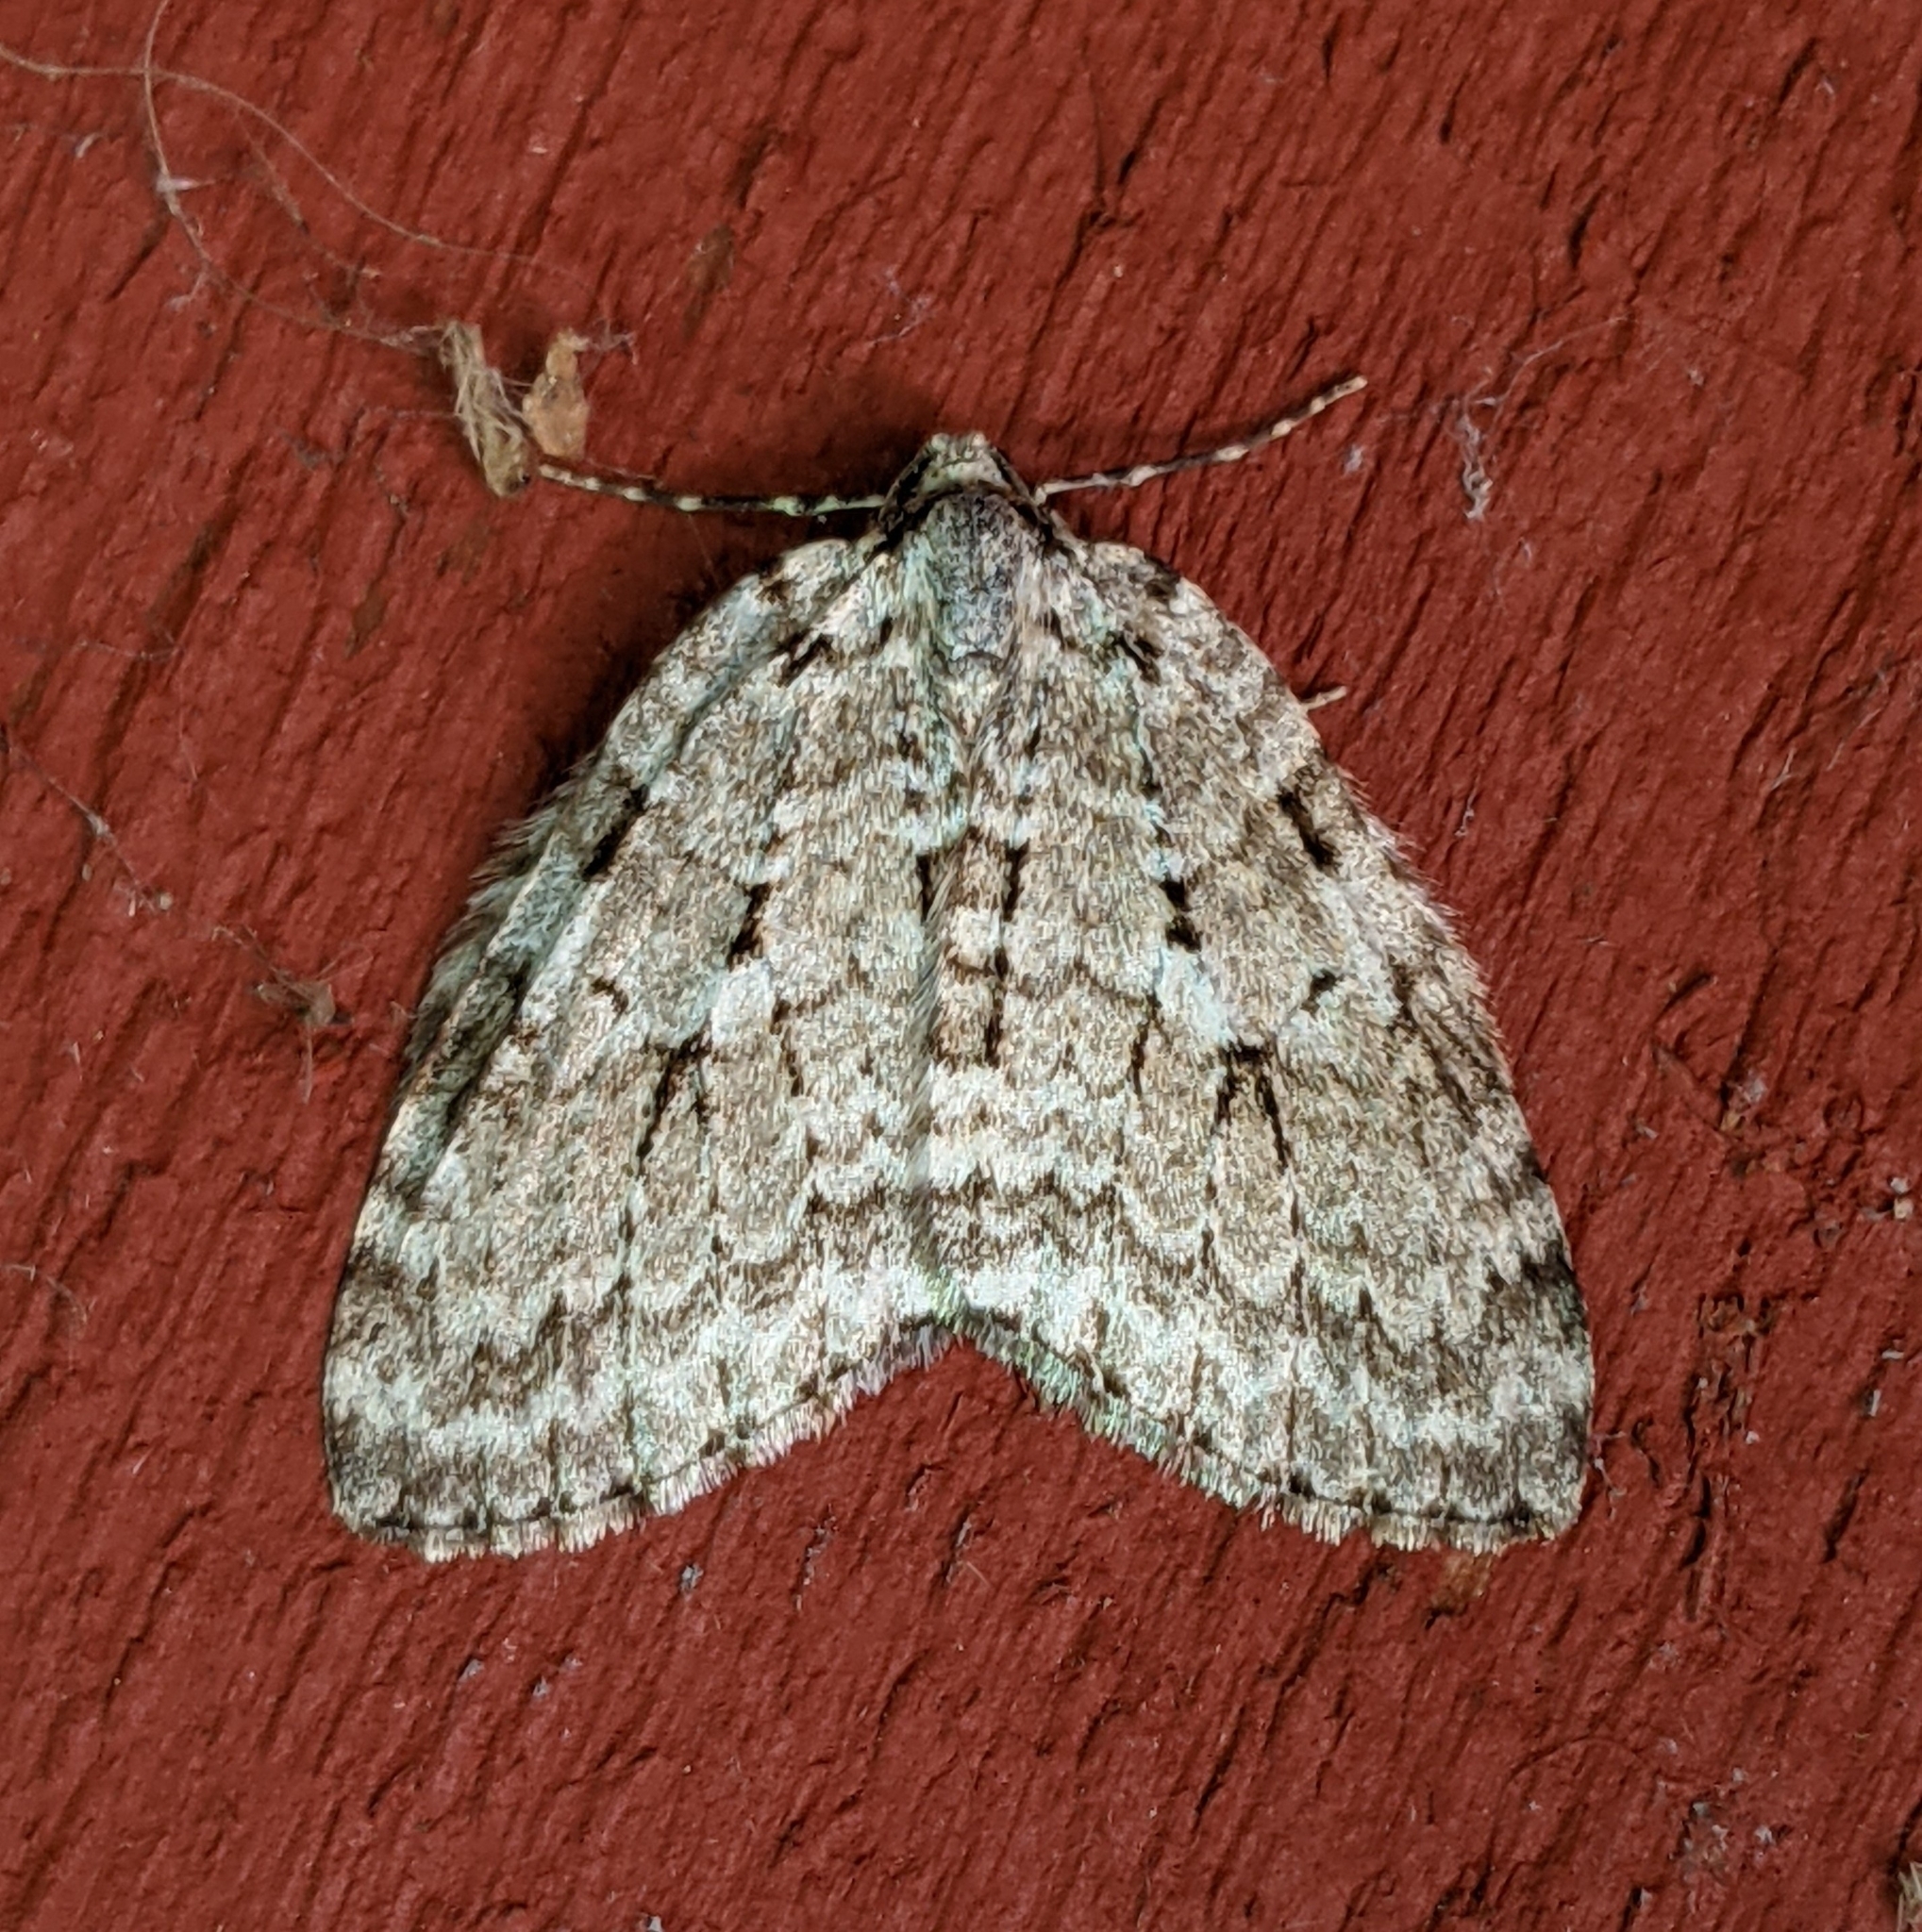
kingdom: Animalia
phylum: Arthropoda
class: Insecta
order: Lepidoptera
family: Geometridae
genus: Epirrita
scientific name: Epirrita autumnata
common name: Autumnal moth
